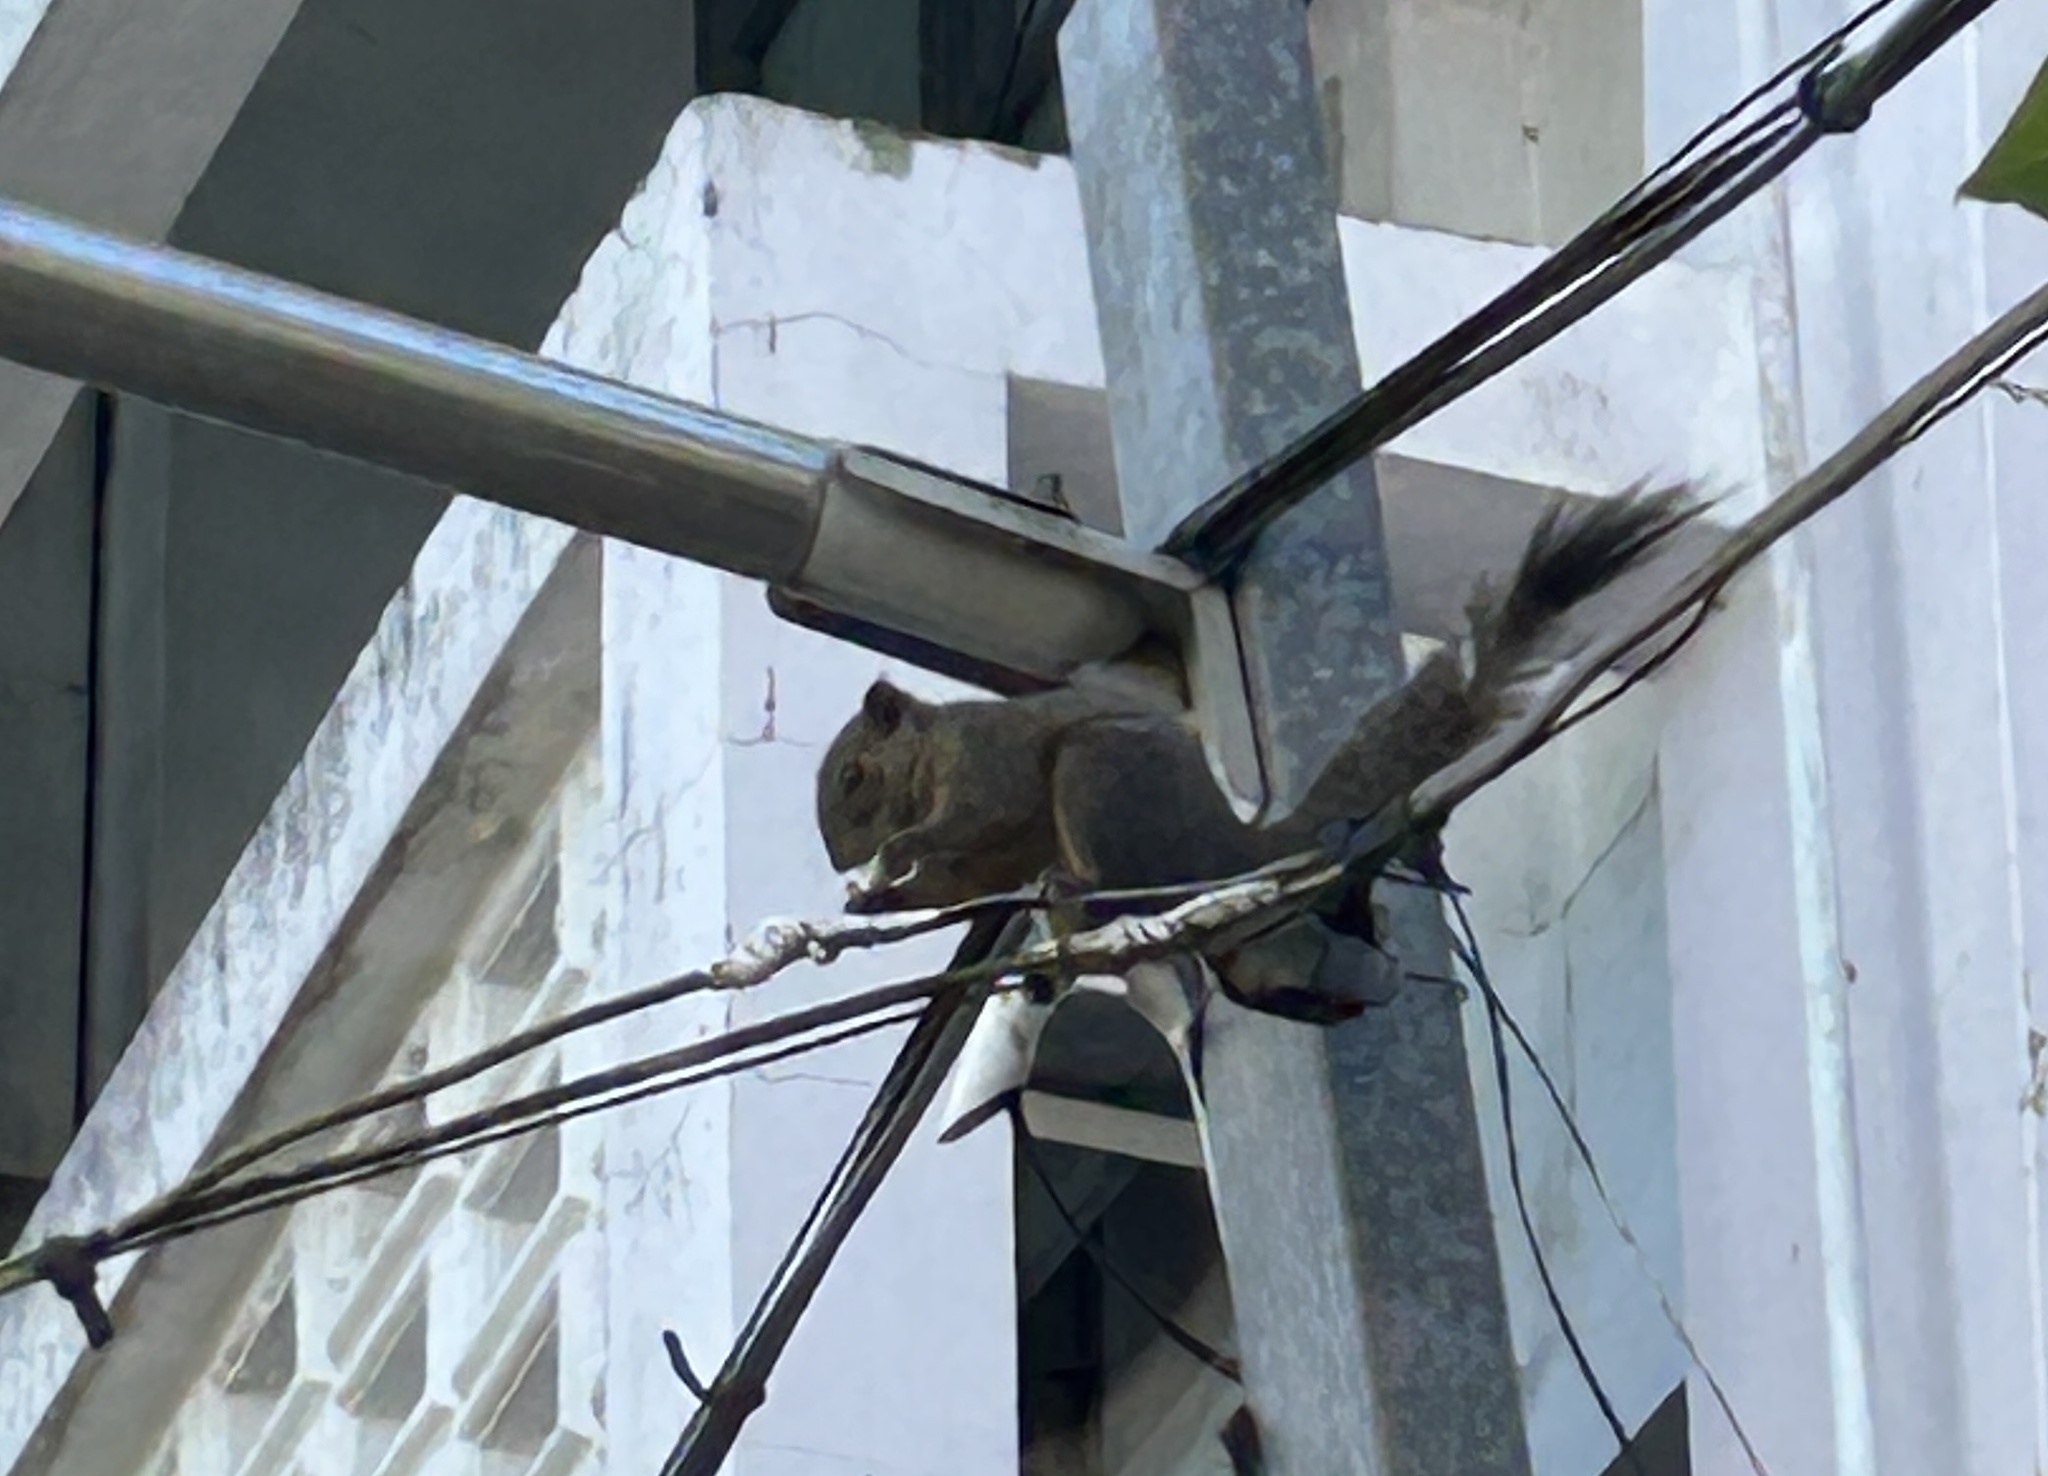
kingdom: Animalia
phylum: Chordata
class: Mammalia
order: Rodentia
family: Sciuridae
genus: Callosciurus
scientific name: Callosciurus pygerythrus
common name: Irrawaddy squirrel
